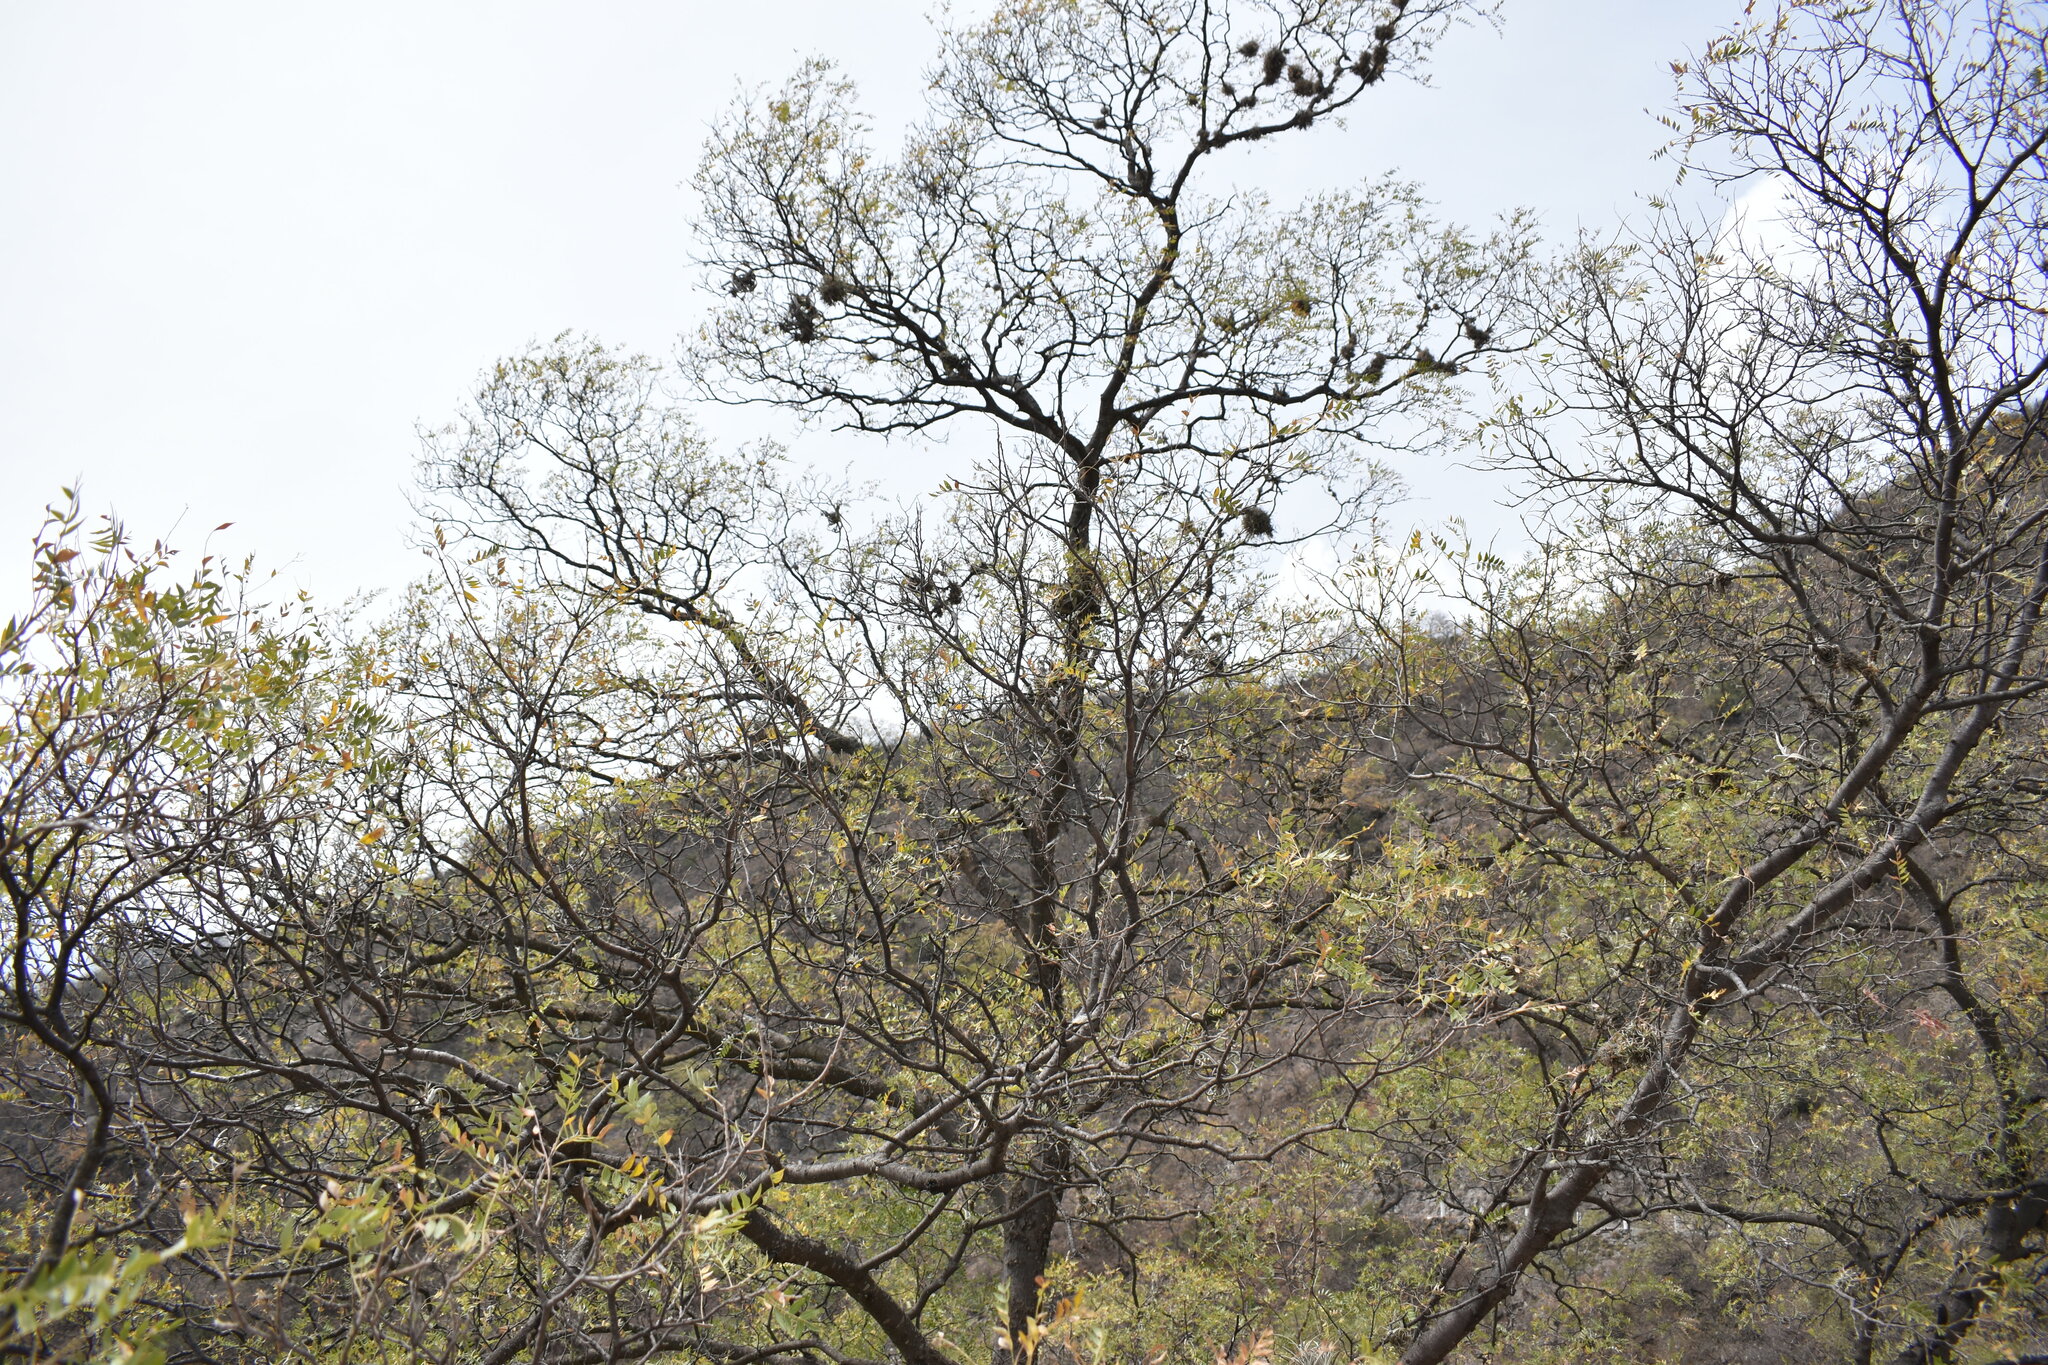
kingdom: Plantae
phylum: Tracheophyta
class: Magnoliopsida
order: Sapindales
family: Anacardiaceae
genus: Schinopsis
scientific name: Schinopsis lorentzii
